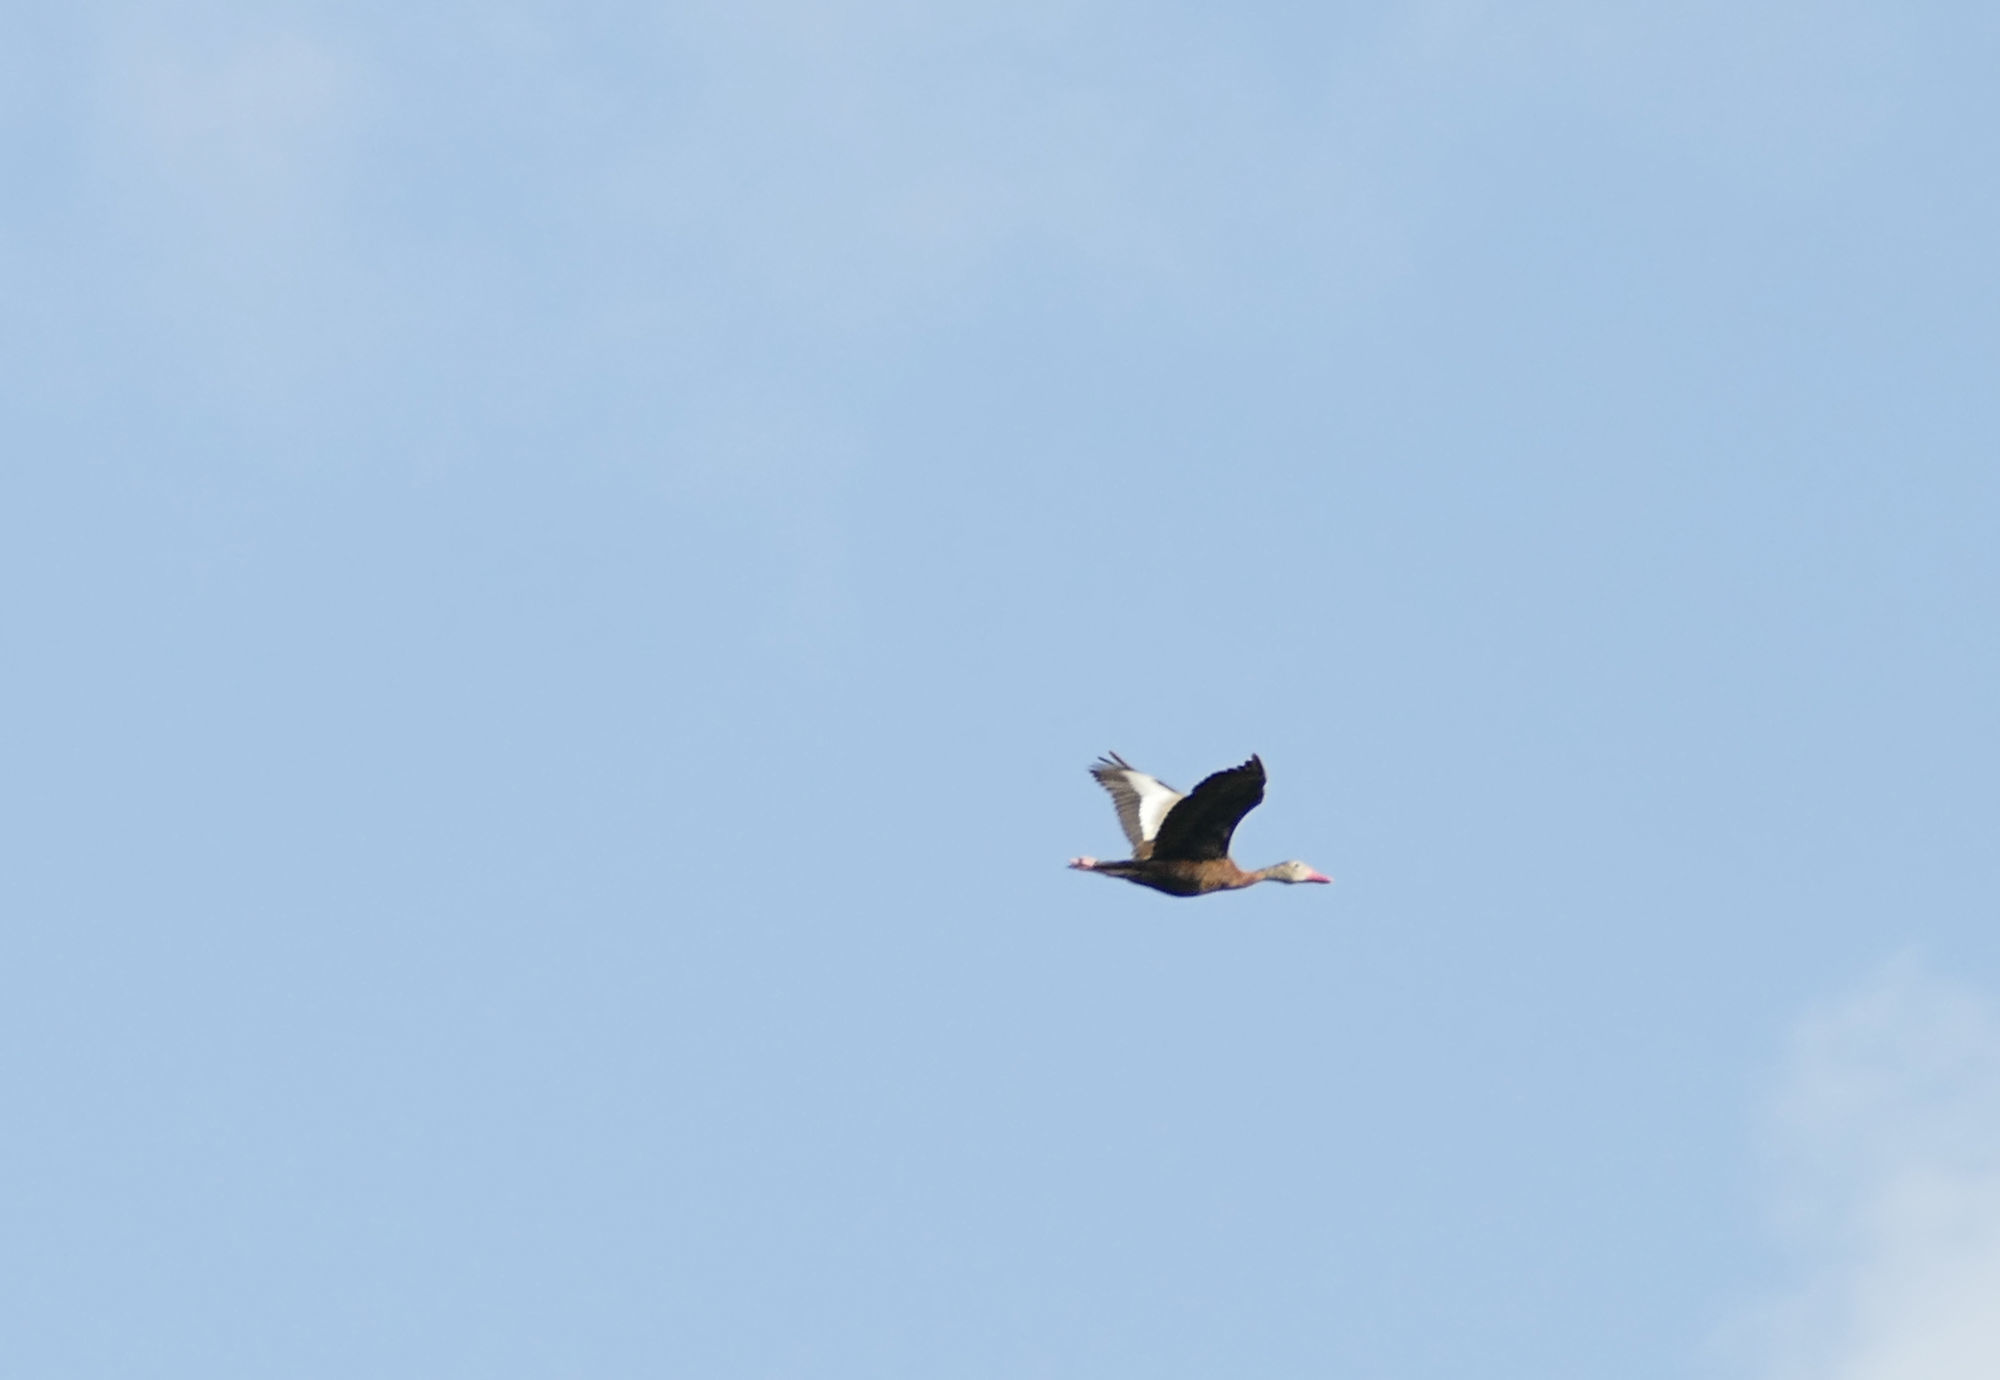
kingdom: Animalia
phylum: Chordata
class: Aves
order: Anseriformes
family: Anatidae
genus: Dendrocygna
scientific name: Dendrocygna autumnalis
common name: Black-bellied whistling duck
